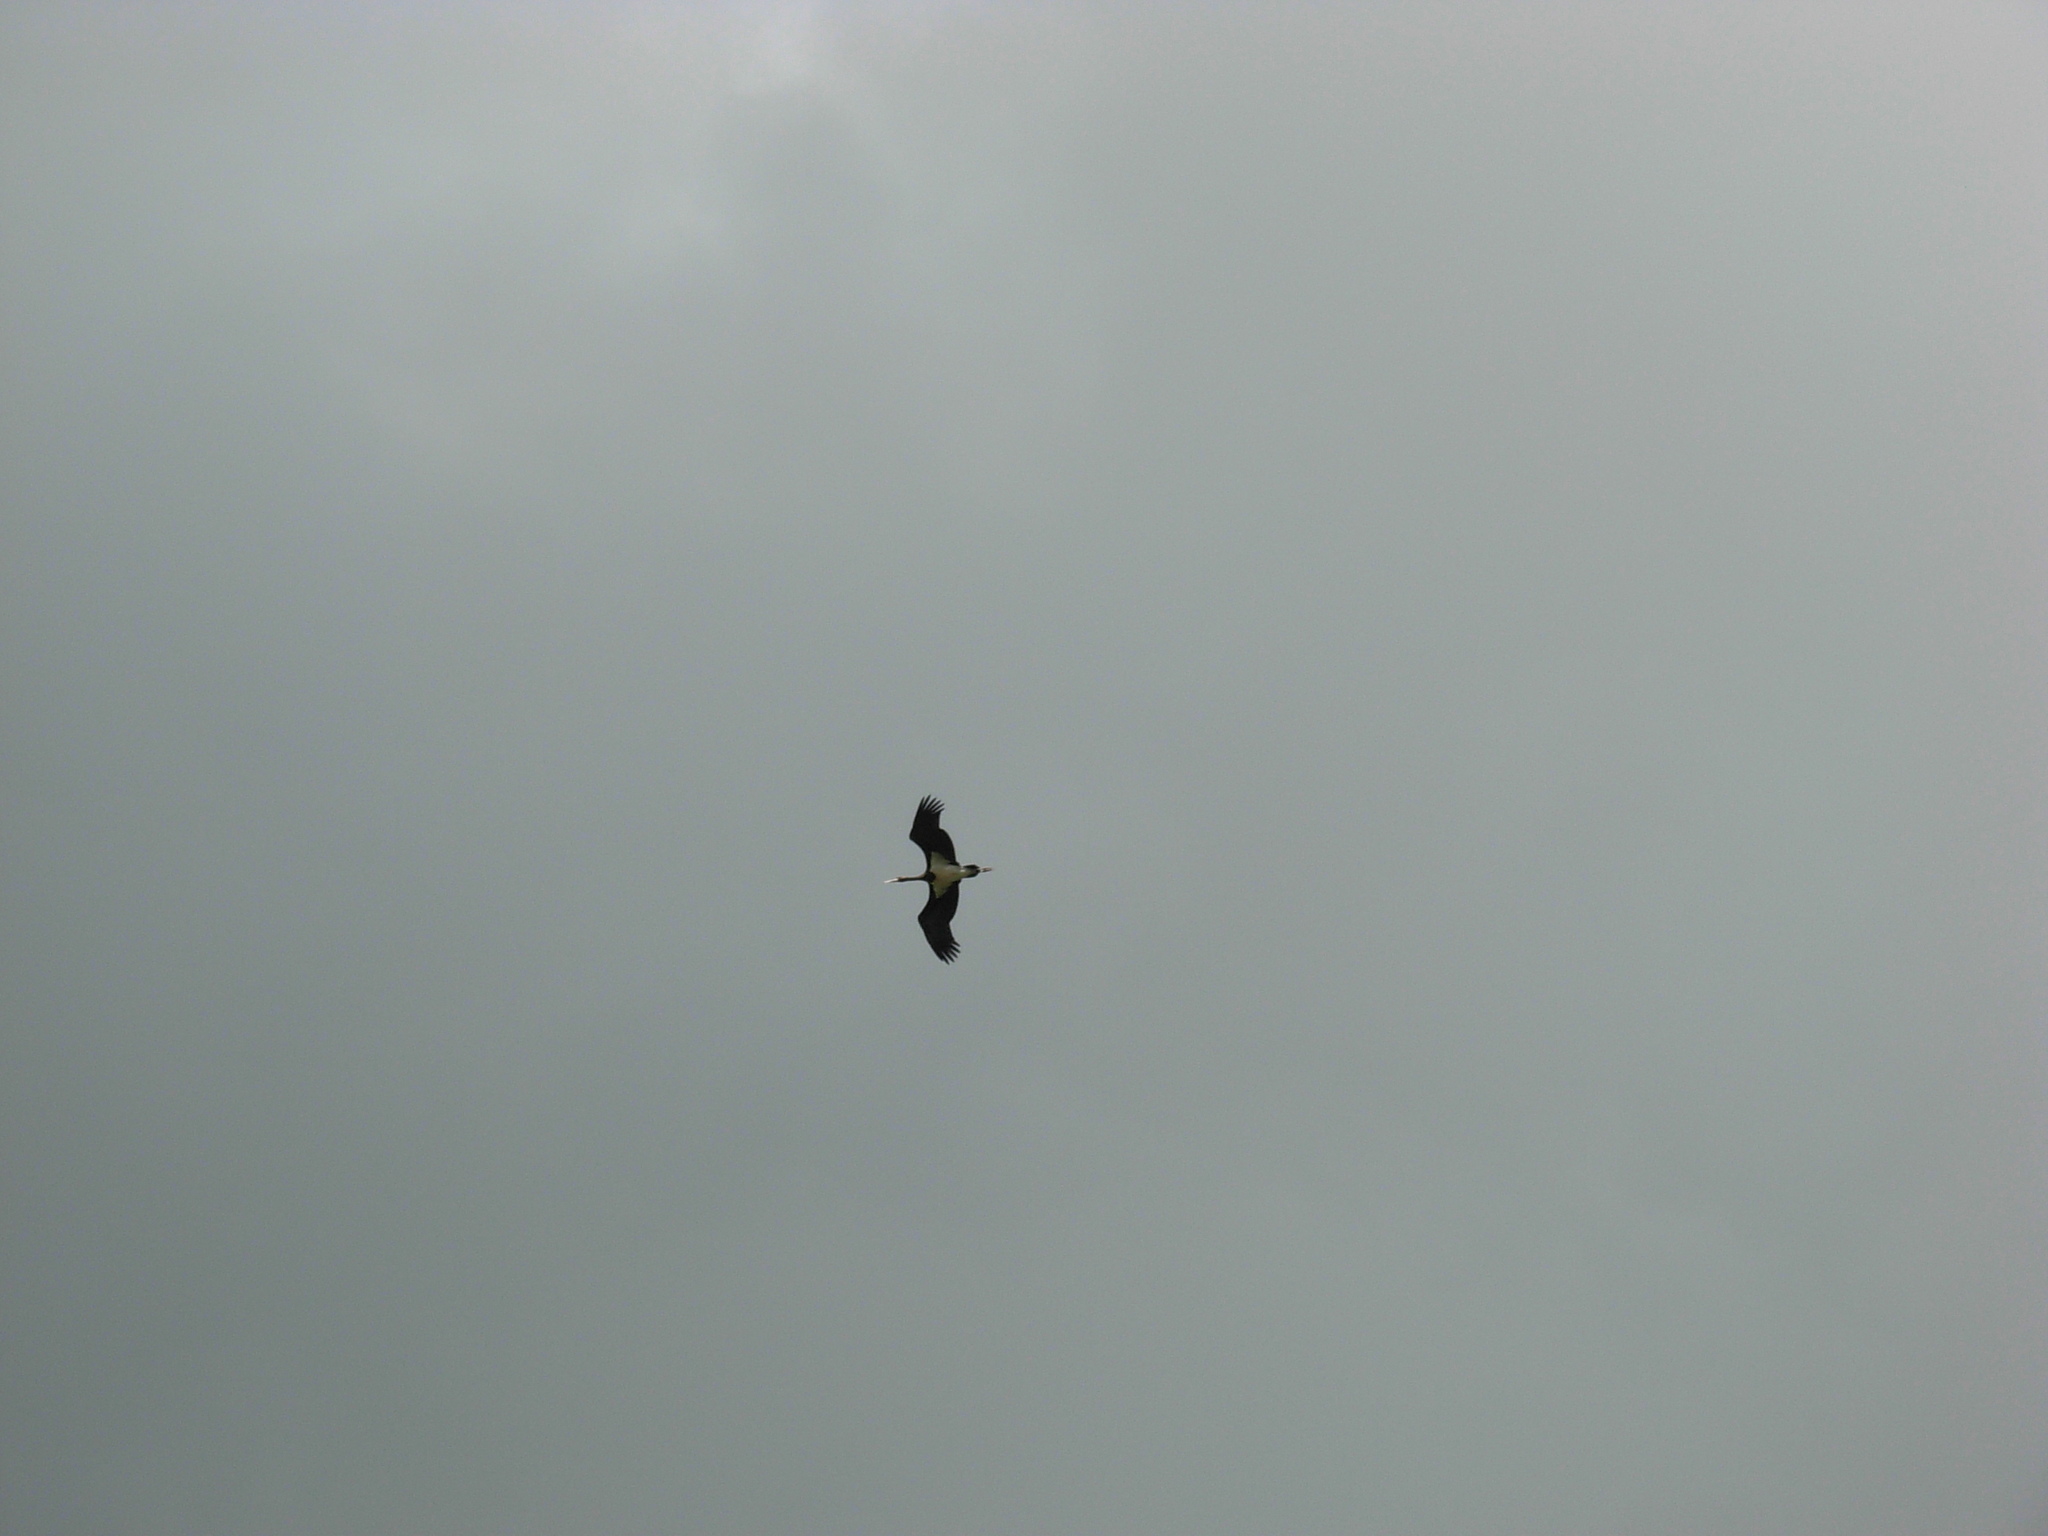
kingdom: Animalia
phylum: Chordata
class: Aves
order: Ciconiiformes
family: Ciconiidae
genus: Ciconia
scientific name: Ciconia nigra
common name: Black stork
